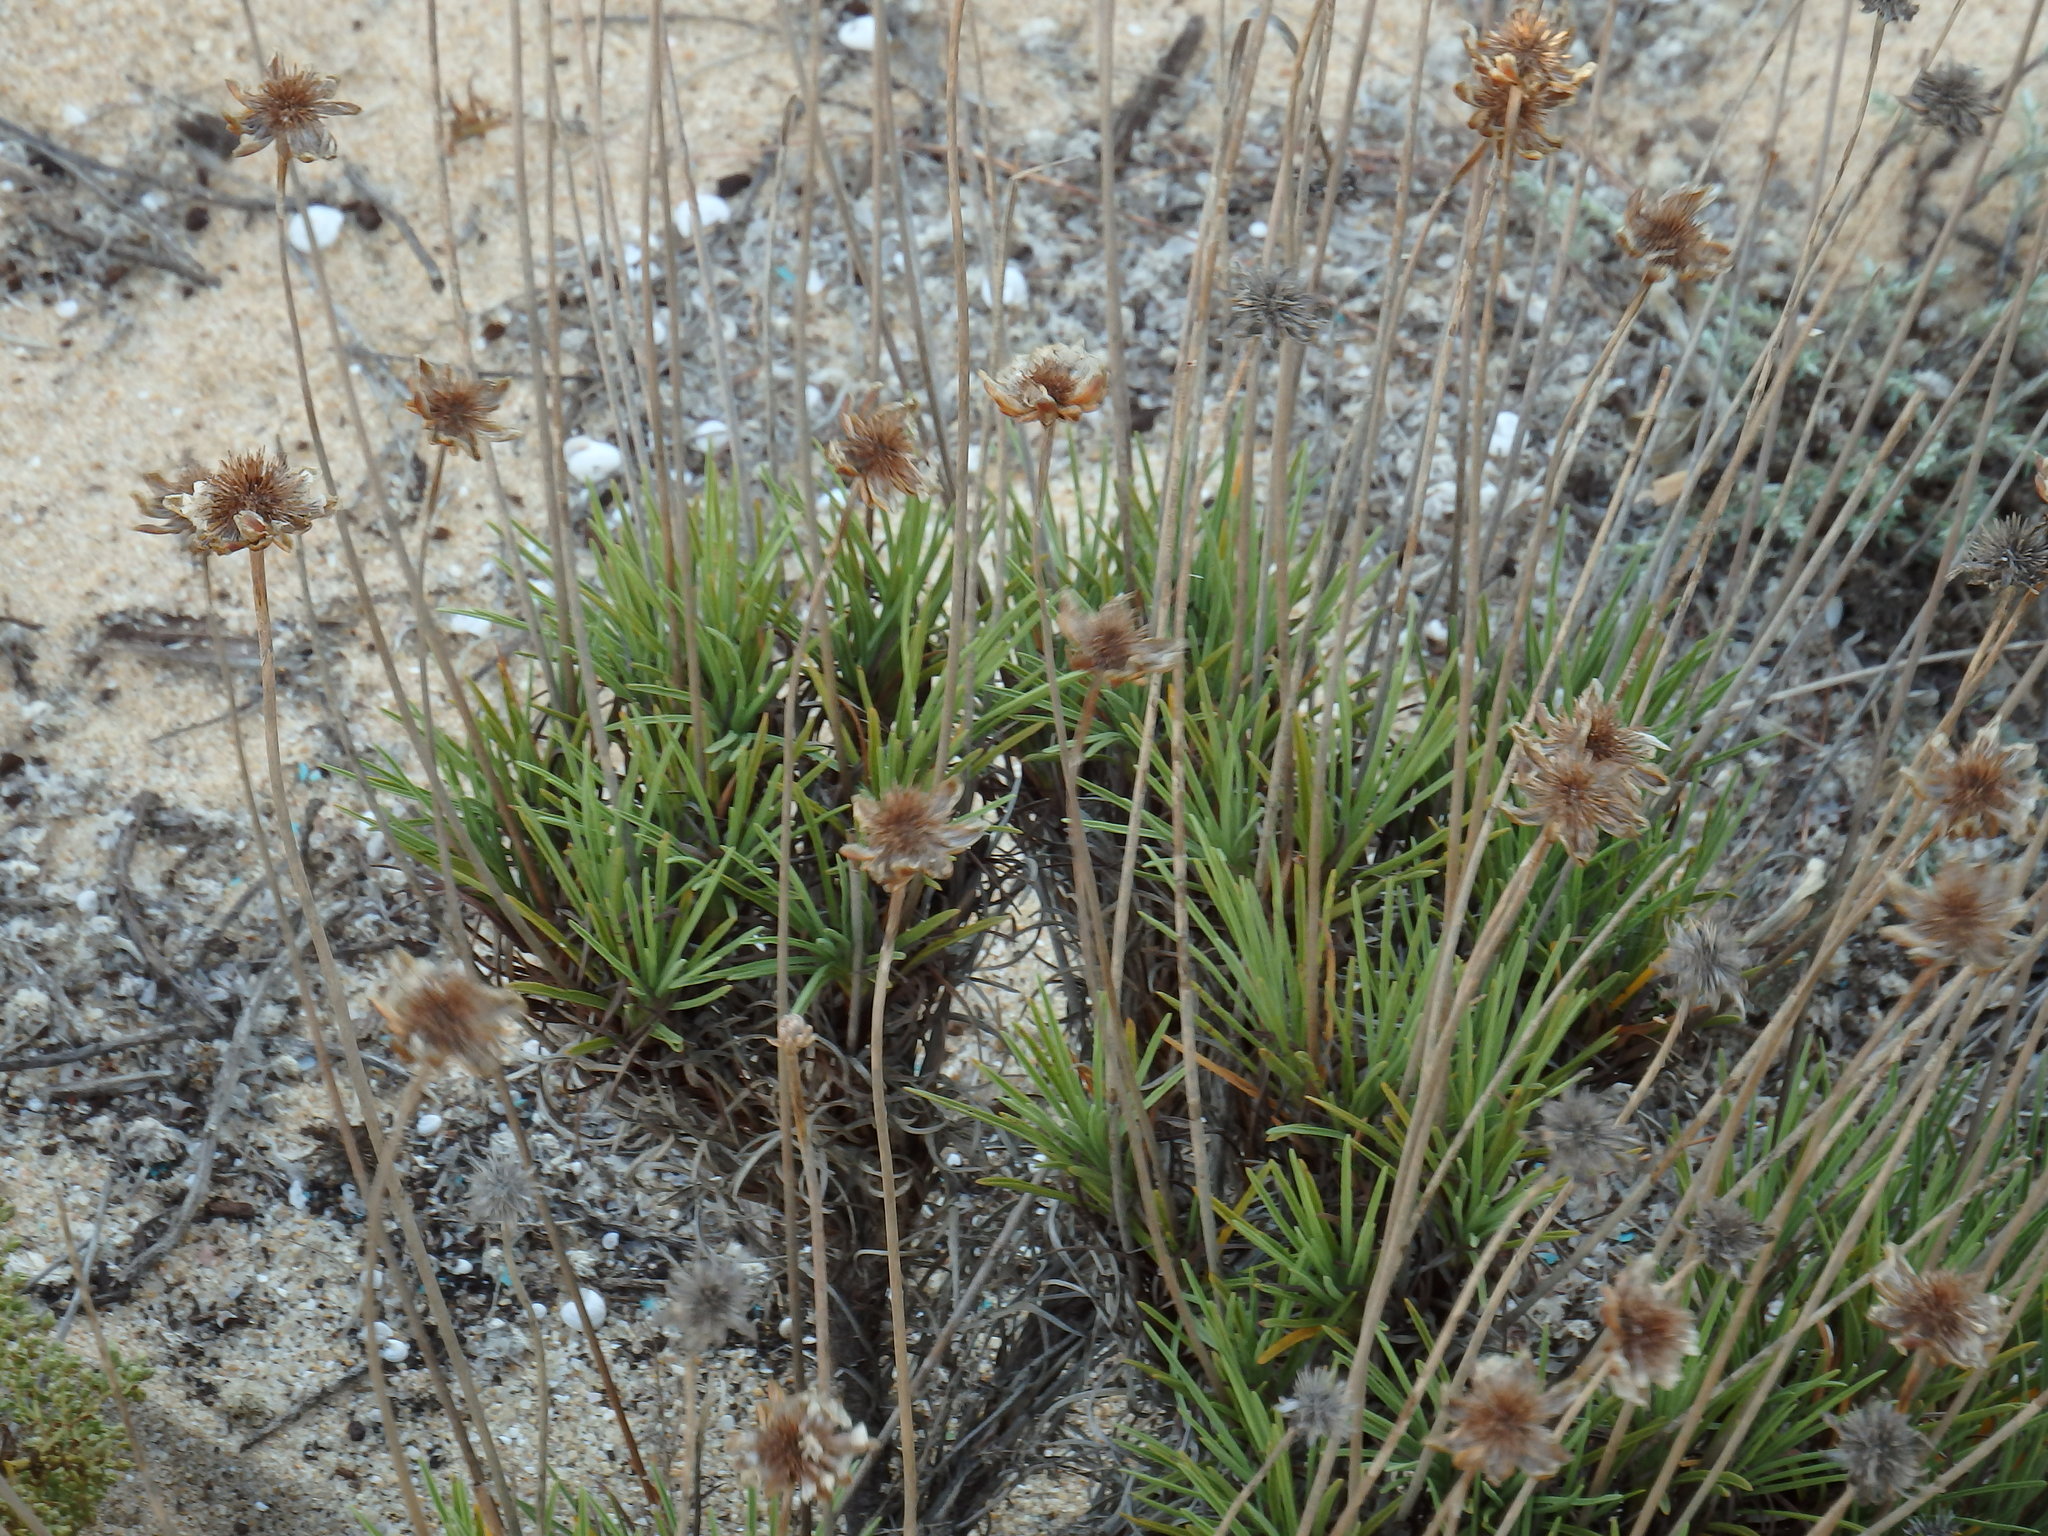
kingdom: Plantae
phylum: Tracheophyta
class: Magnoliopsida
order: Caryophyllales
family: Plumbaginaceae
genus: Armeria
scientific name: Armeria pungens
